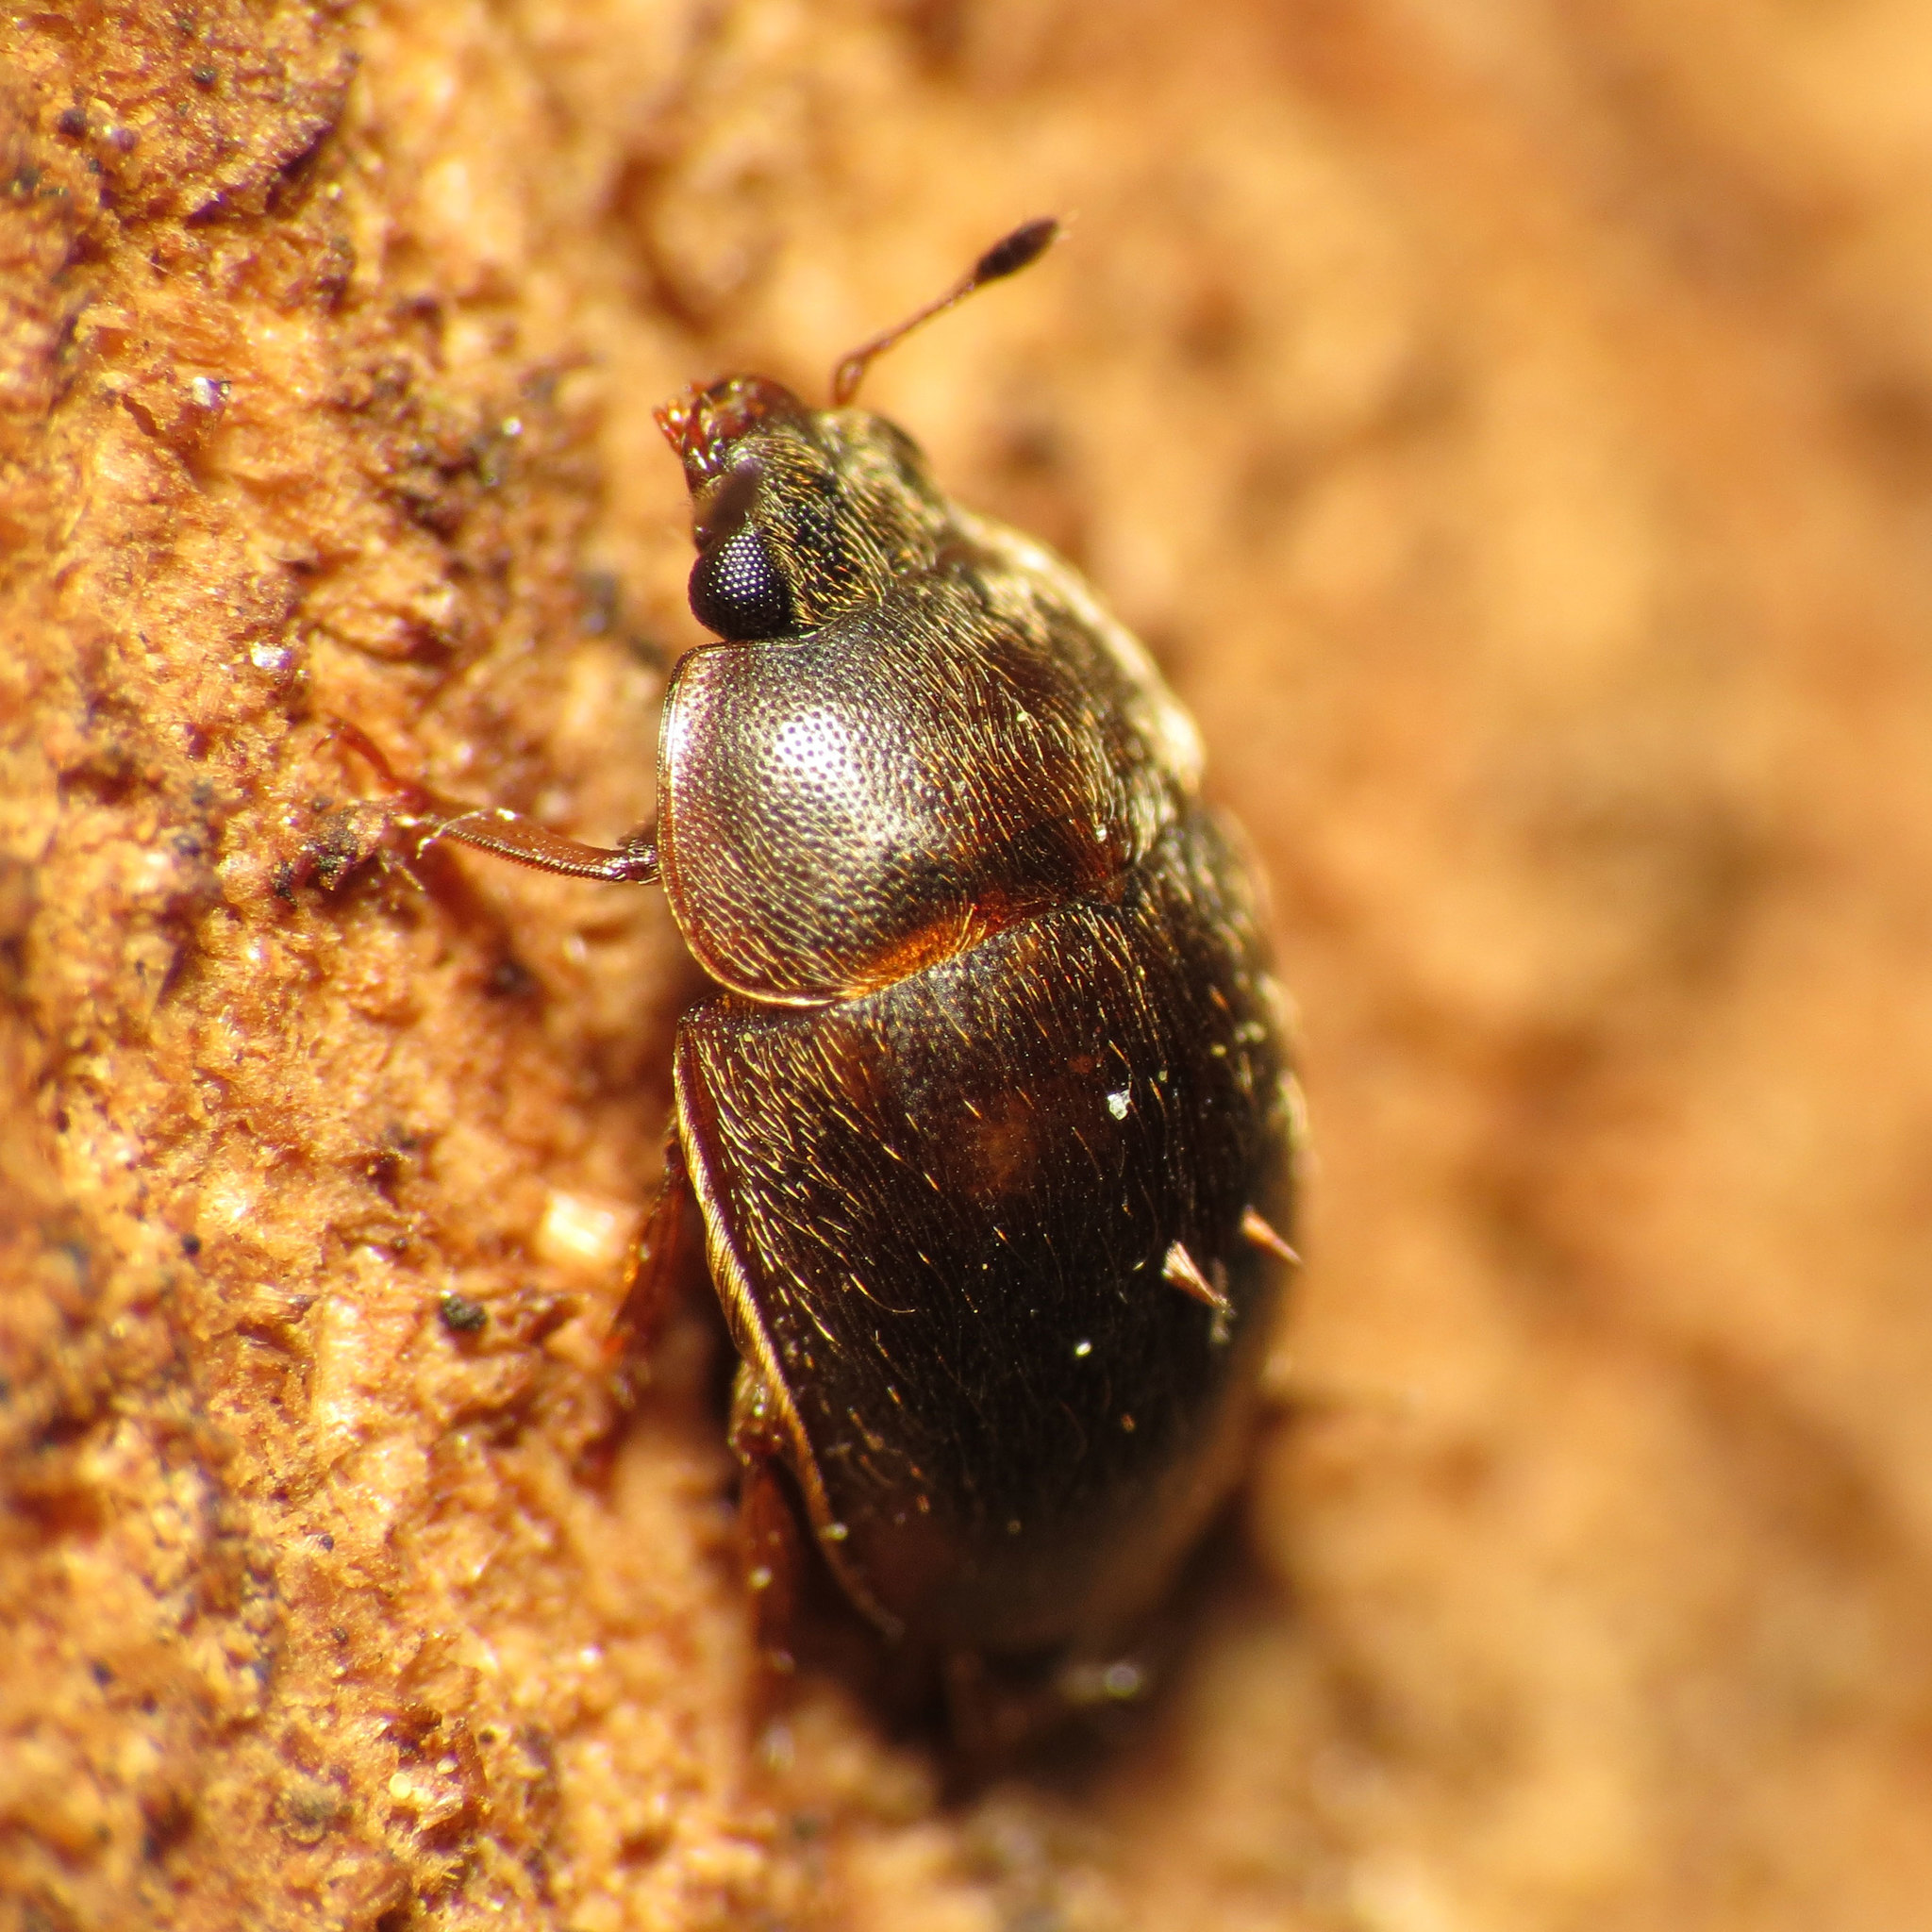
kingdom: Animalia
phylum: Arthropoda
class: Insecta
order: Coleoptera
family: Nitidulidae
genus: Amphicrossus
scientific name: Amphicrossus ciliatus
